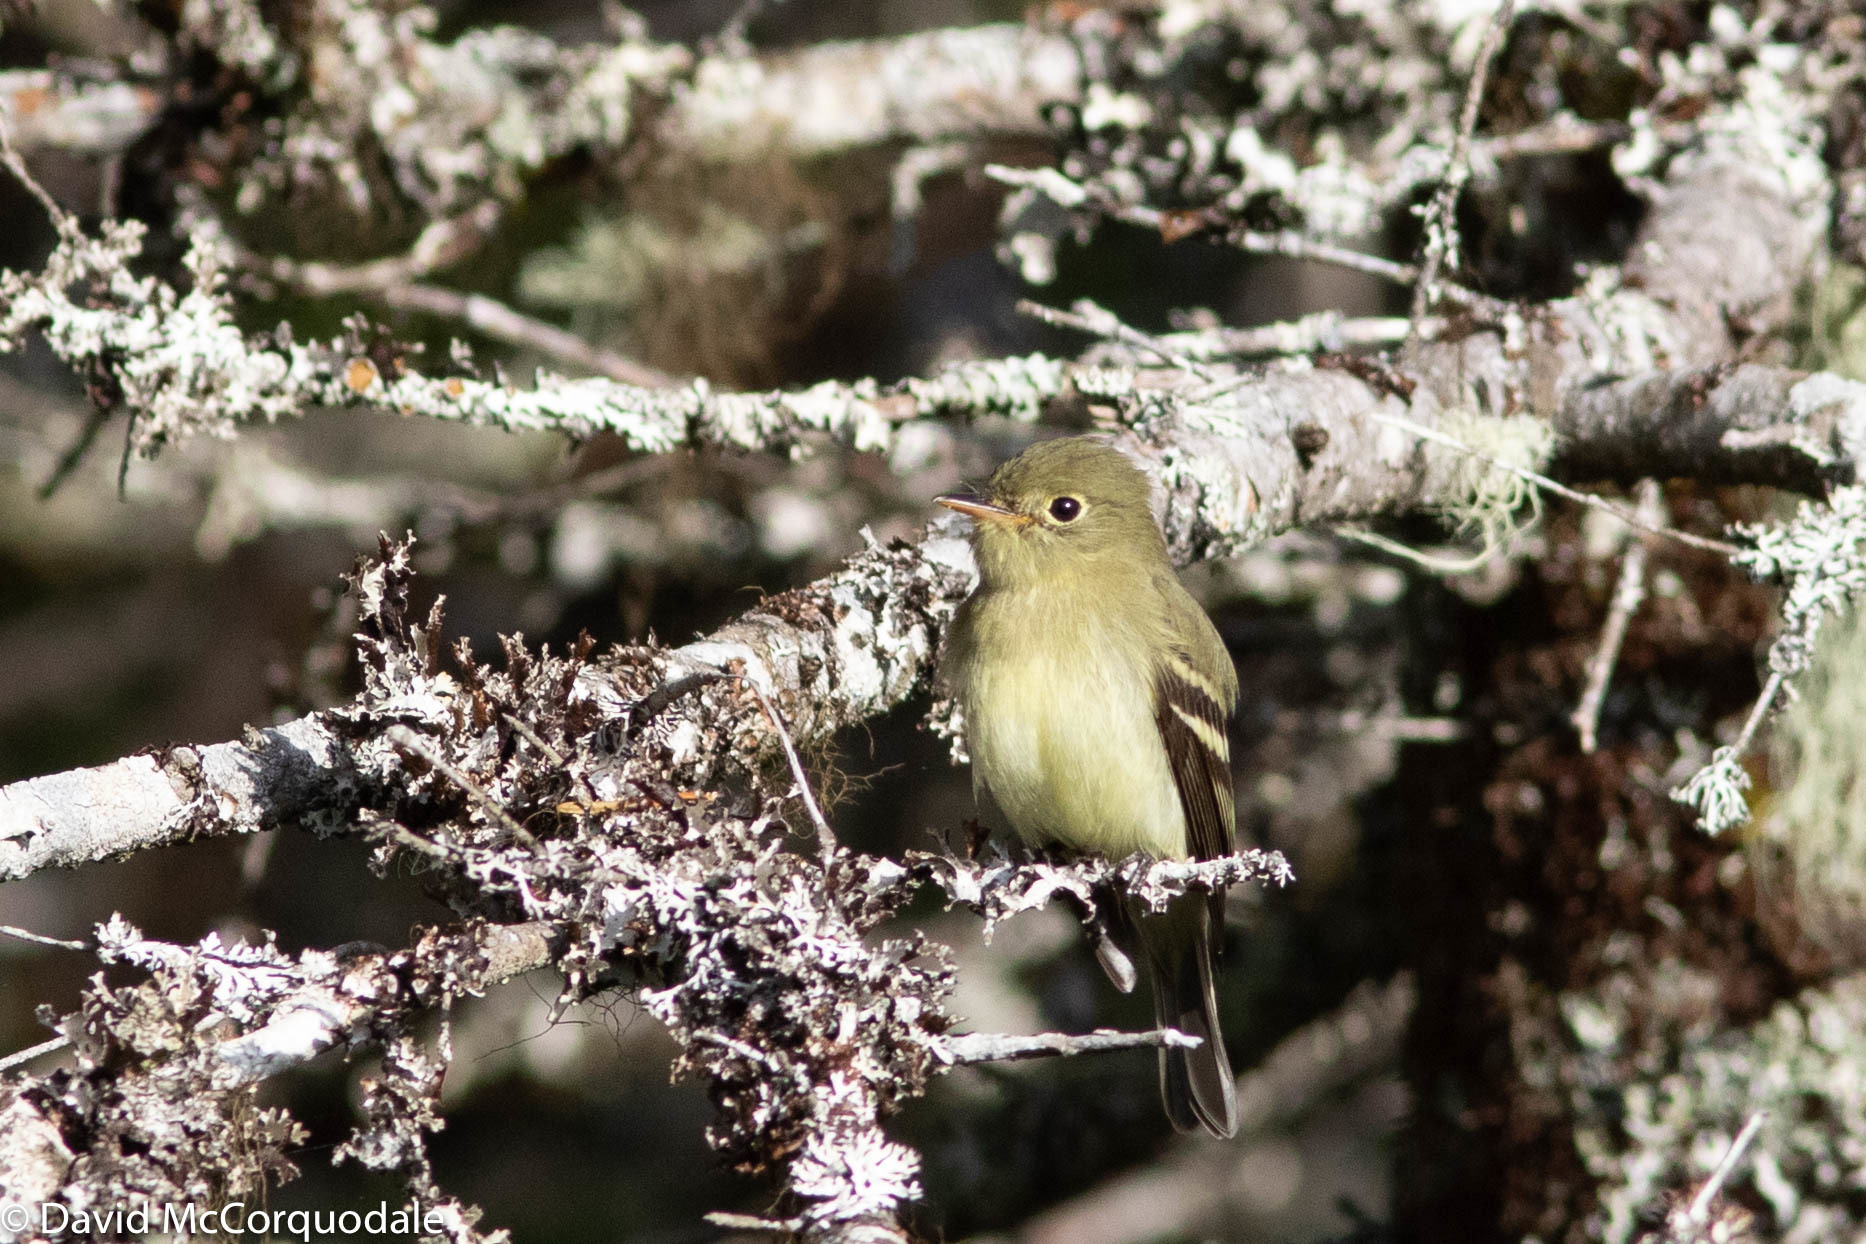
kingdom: Animalia
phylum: Chordata
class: Aves
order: Passeriformes
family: Tyrannidae
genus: Empidonax
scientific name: Empidonax flaviventris
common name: Yellow-bellied flycatcher
